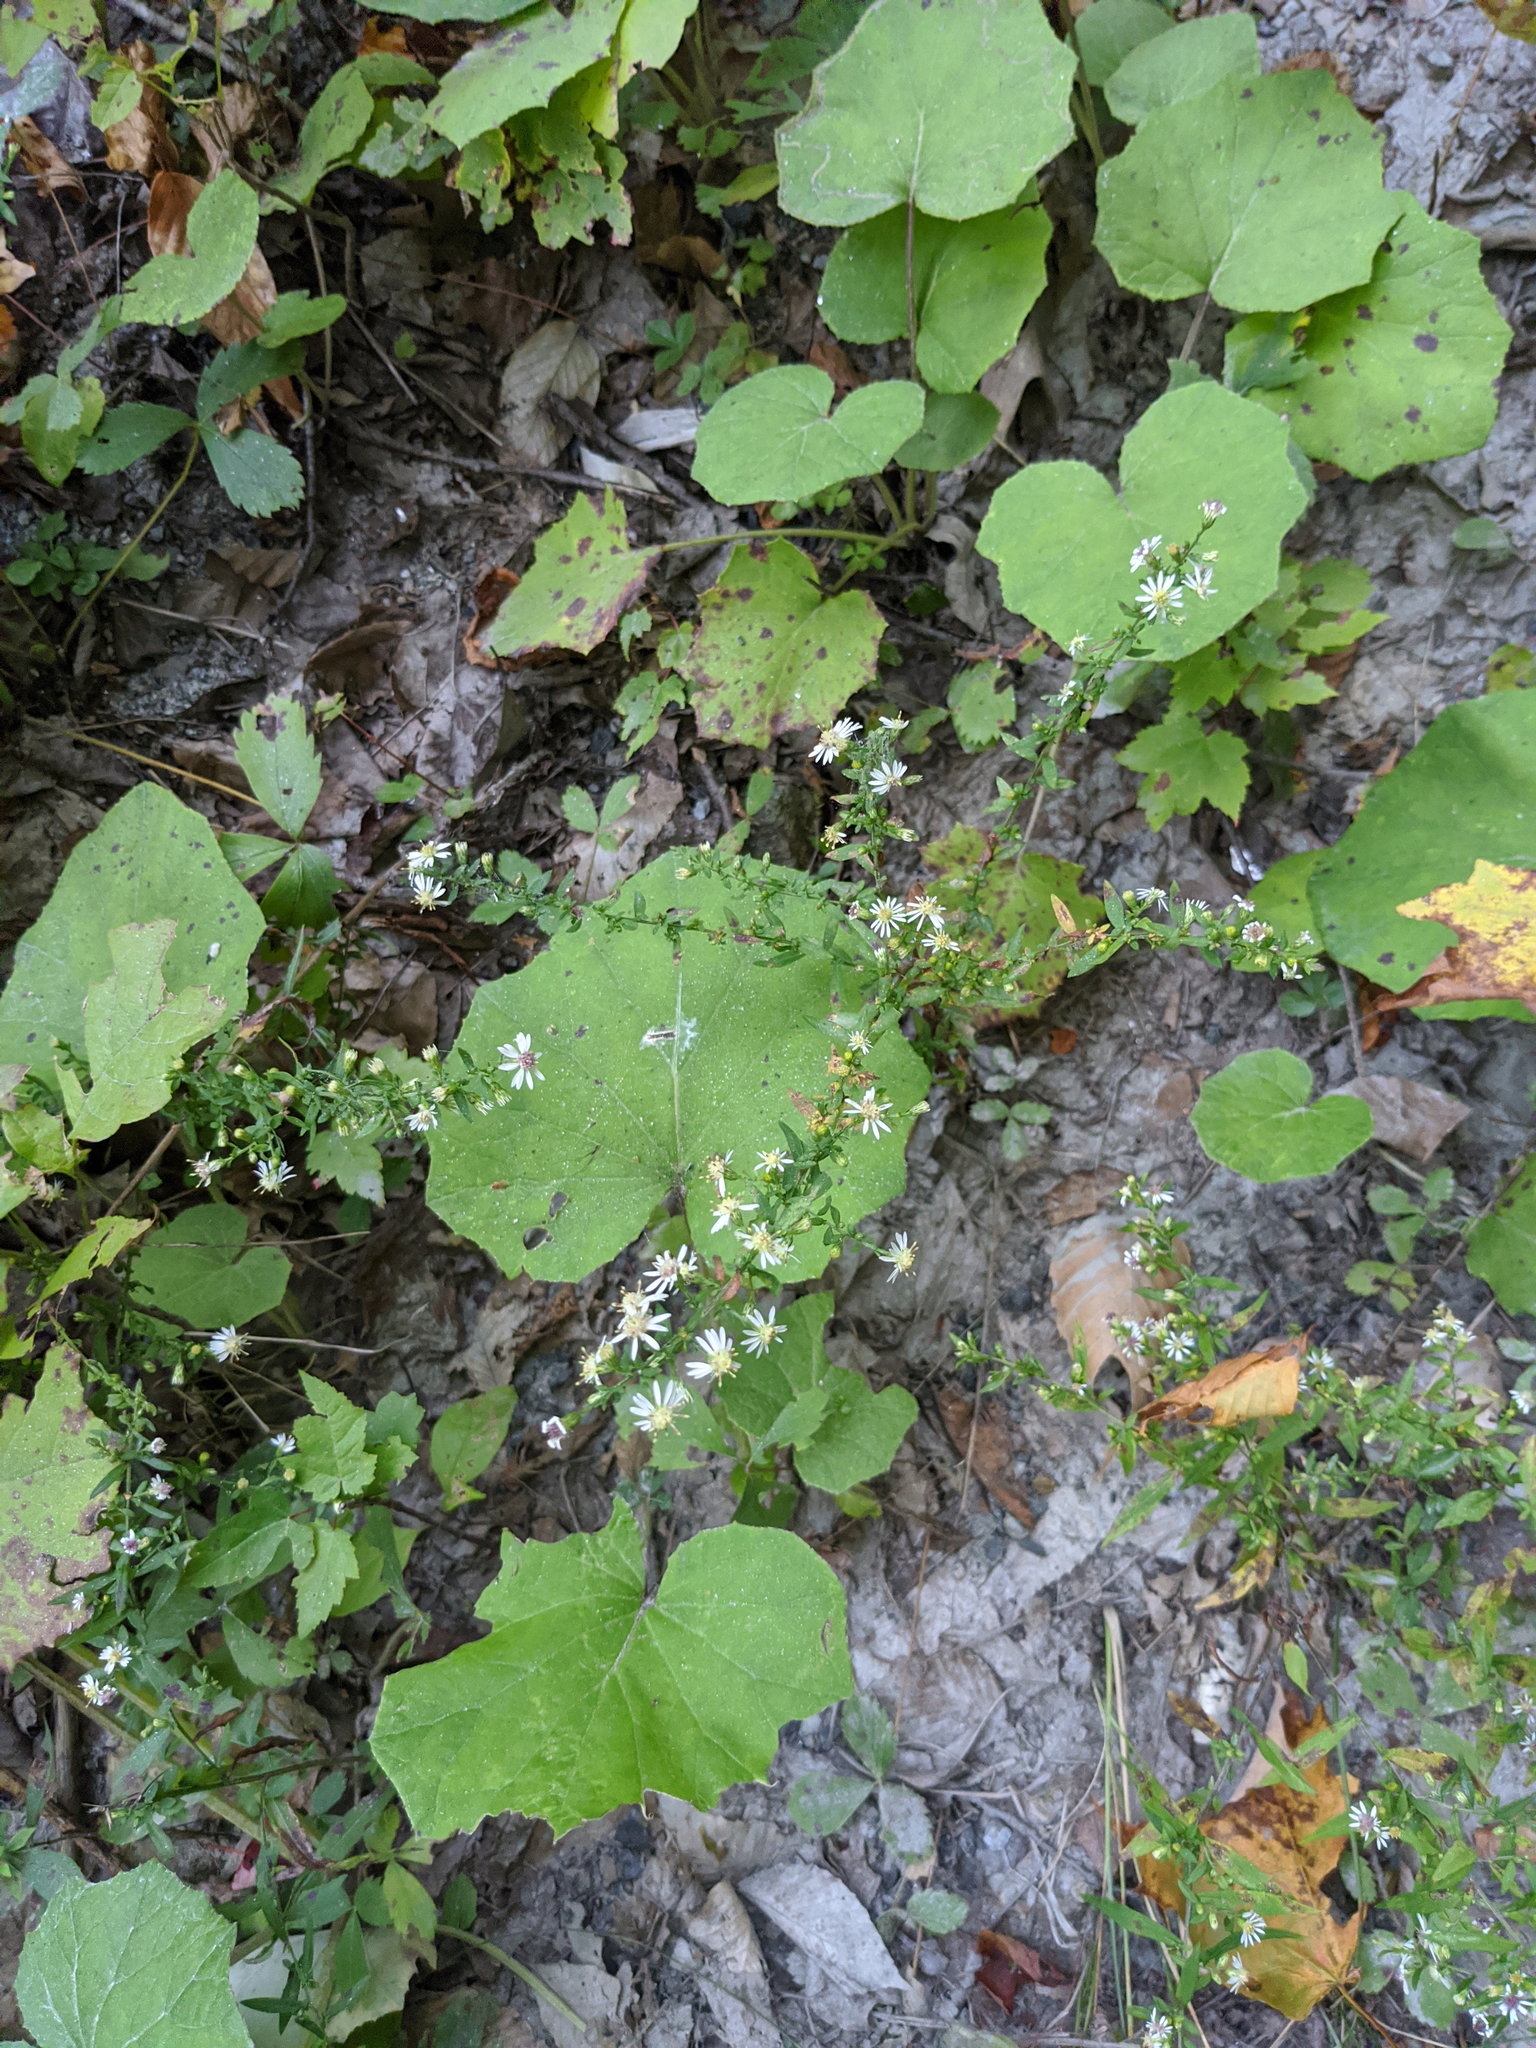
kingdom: Plantae
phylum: Tracheophyta
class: Magnoliopsida
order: Asterales
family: Asteraceae
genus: Symphyotrichum
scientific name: Symphyotrichum lateriflorum
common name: Calico aster
